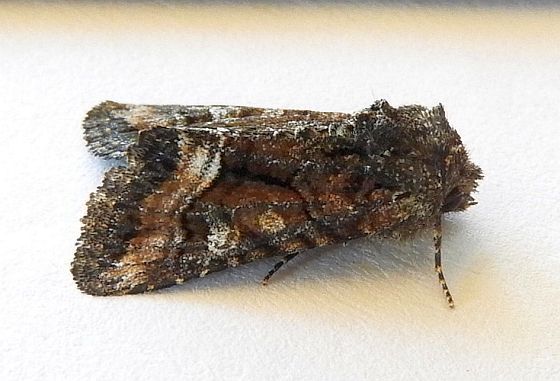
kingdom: Animalia
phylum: Arthropoda
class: Insecta
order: Lepidoptera
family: Noctuidae
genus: Pseudanarta
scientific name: Pseudanarta actura
